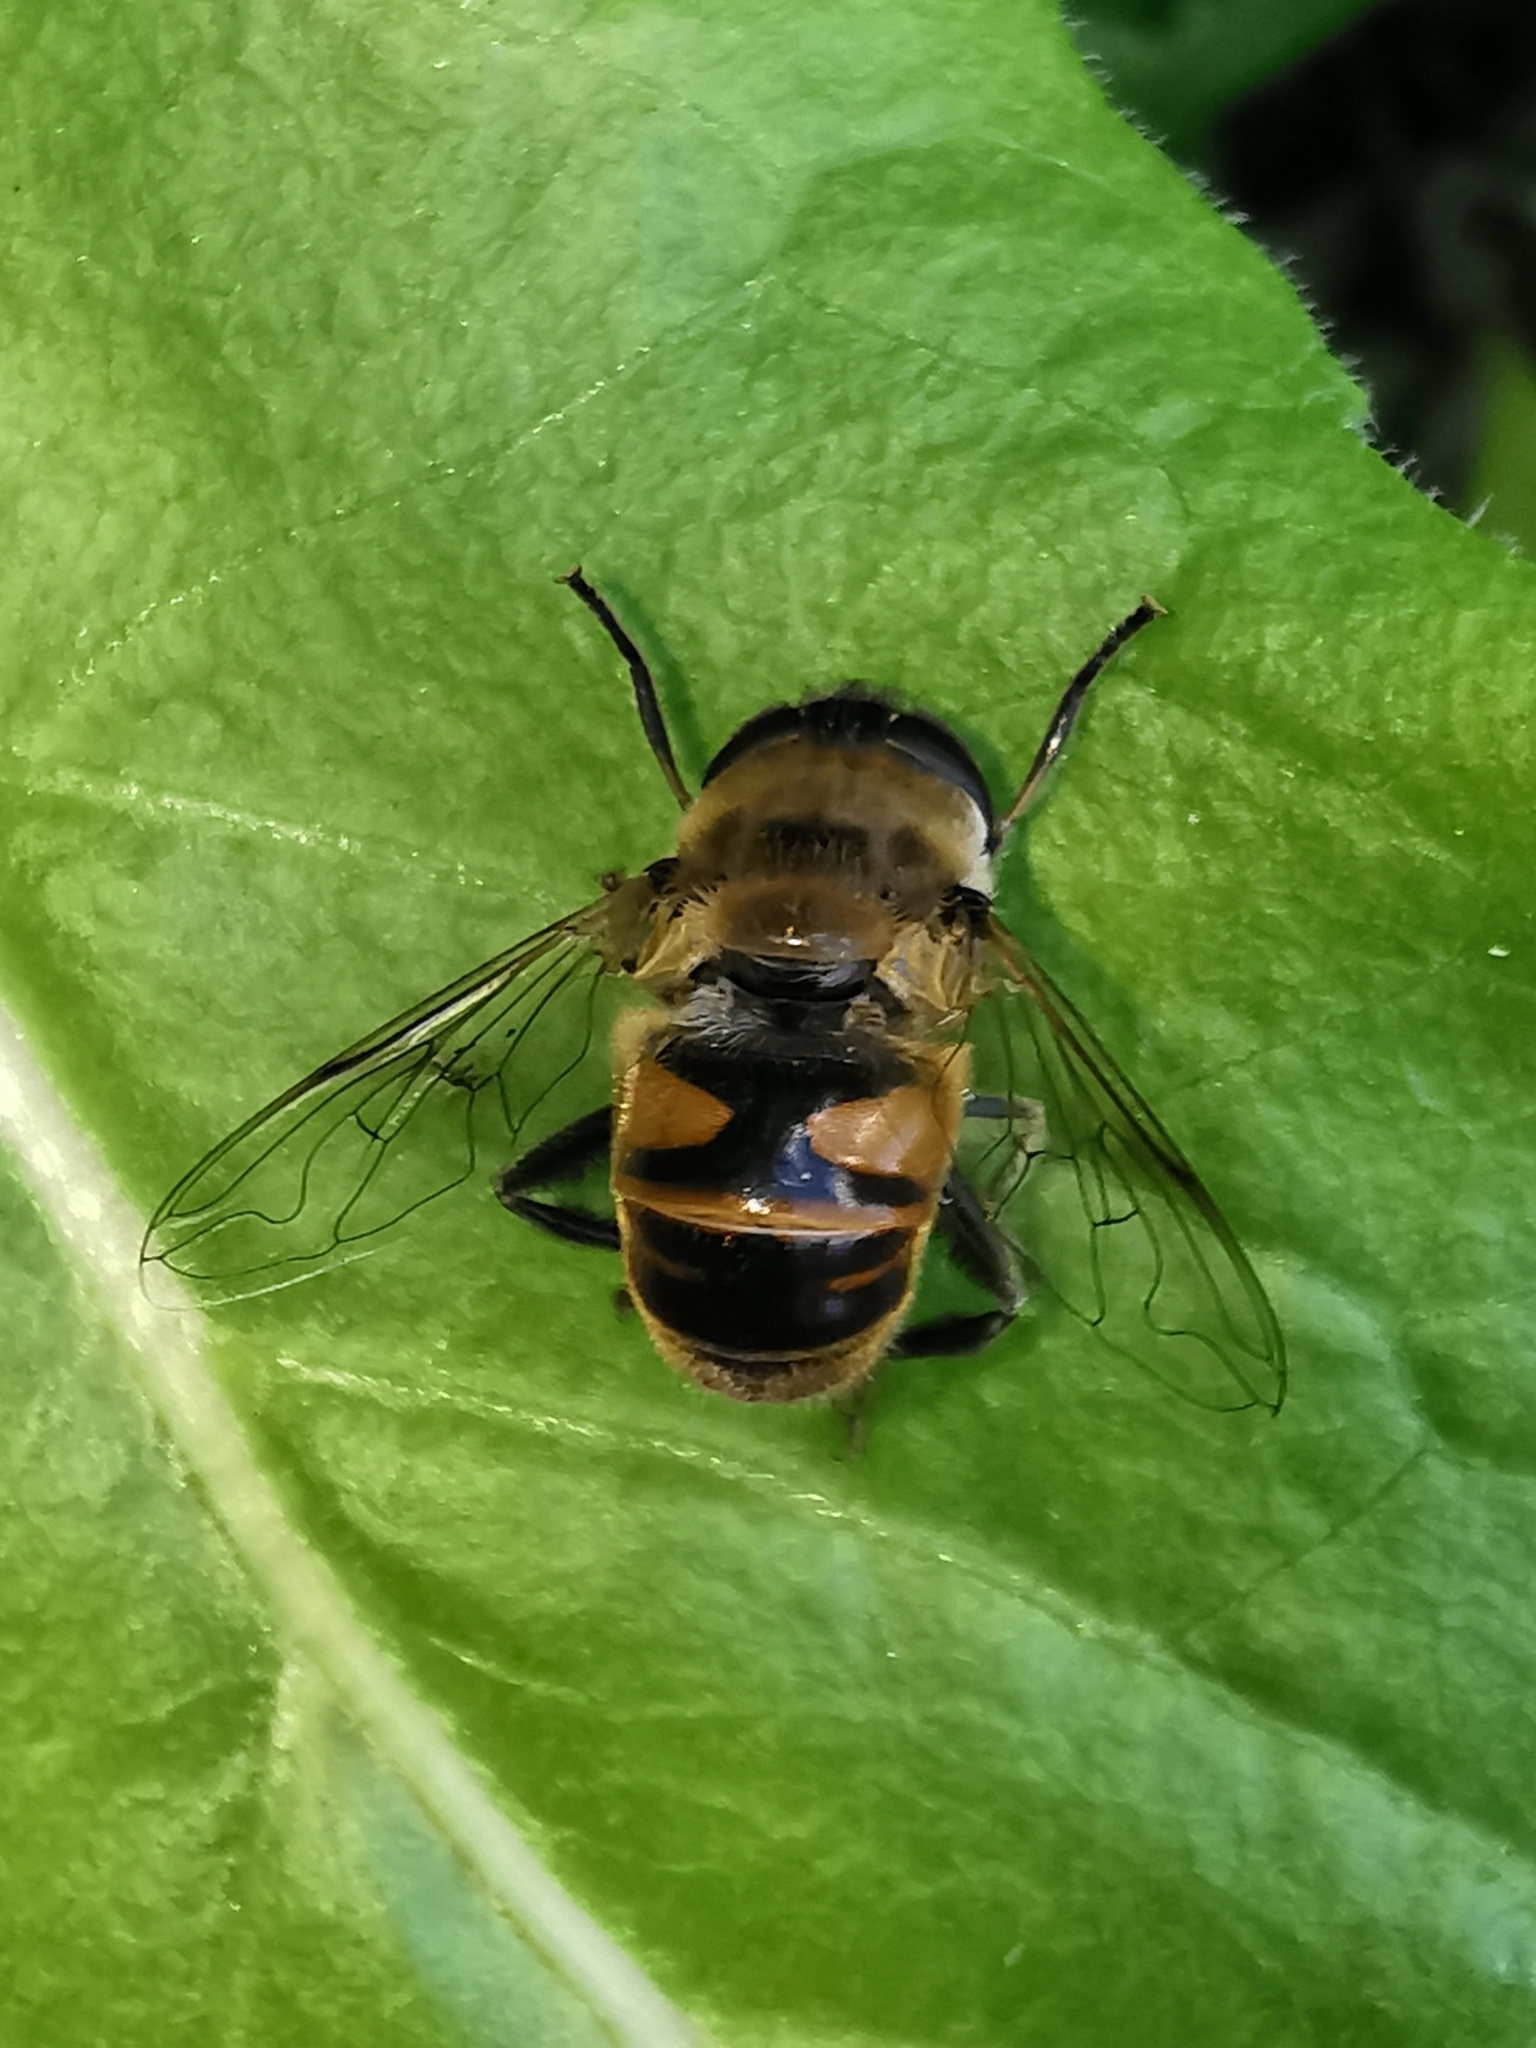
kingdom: Animalia
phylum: Arthropoda
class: Insecta
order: Diptera
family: Syrphidae
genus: Eristalis
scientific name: Eristalis tenax
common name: Drone fly
